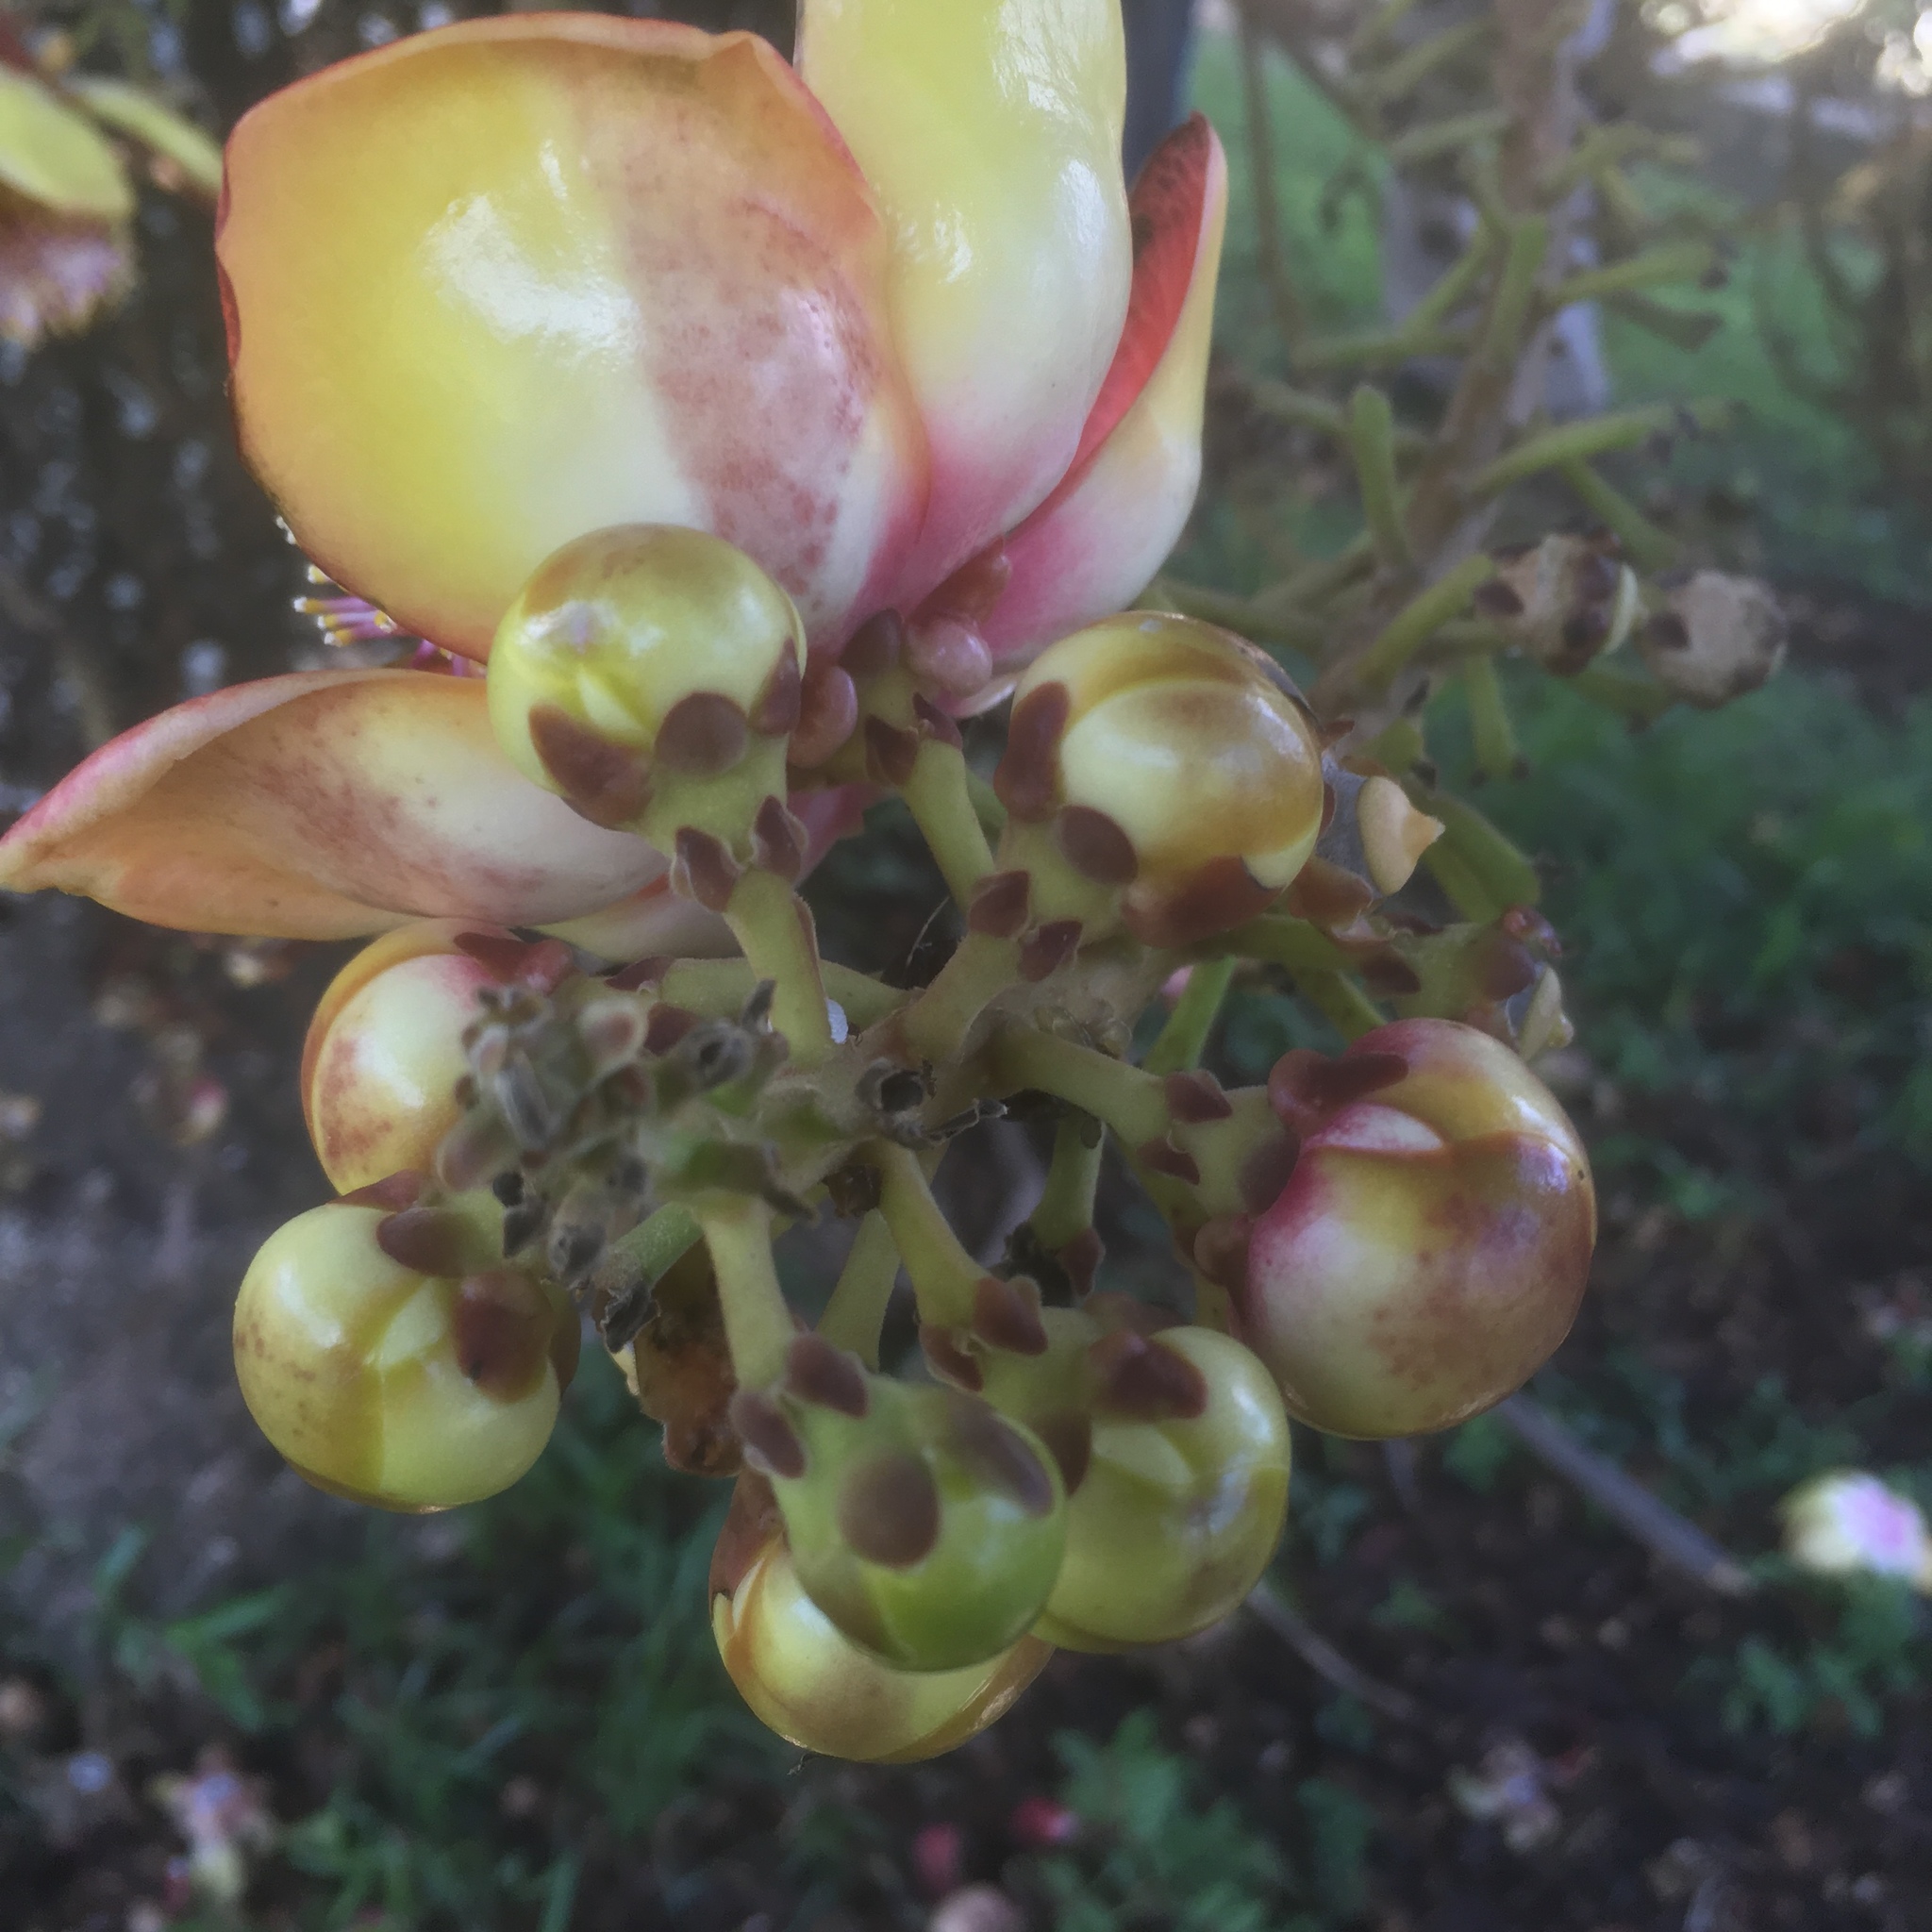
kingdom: Plantae
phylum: Tracheophyta
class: Magnoliopsida
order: Ericales
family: Lecythidaceae
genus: Couroupita
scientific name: Couroupita guianensis
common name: Cannonball tree
